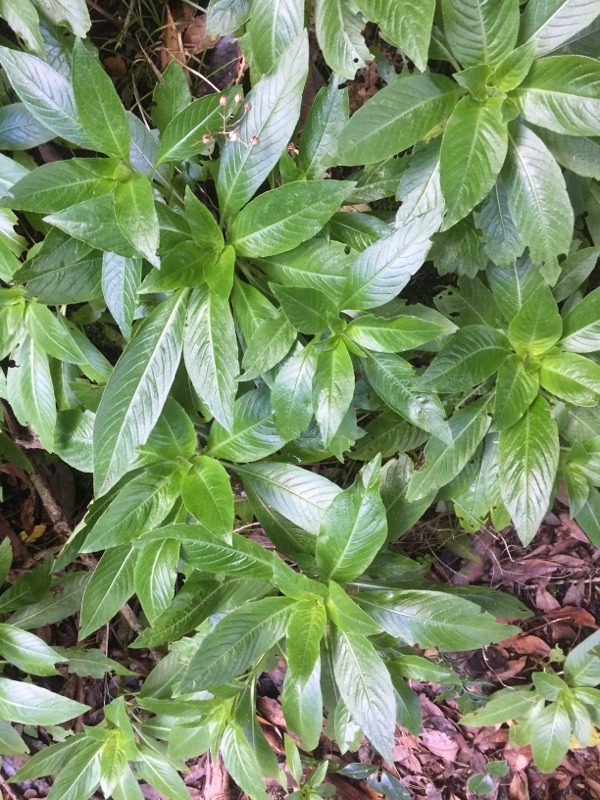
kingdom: Plantae
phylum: Tracheophyta
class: Magnoliopsida
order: Gentianales
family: Rubiaceae
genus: Phyllis
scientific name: Phyllis nobla
